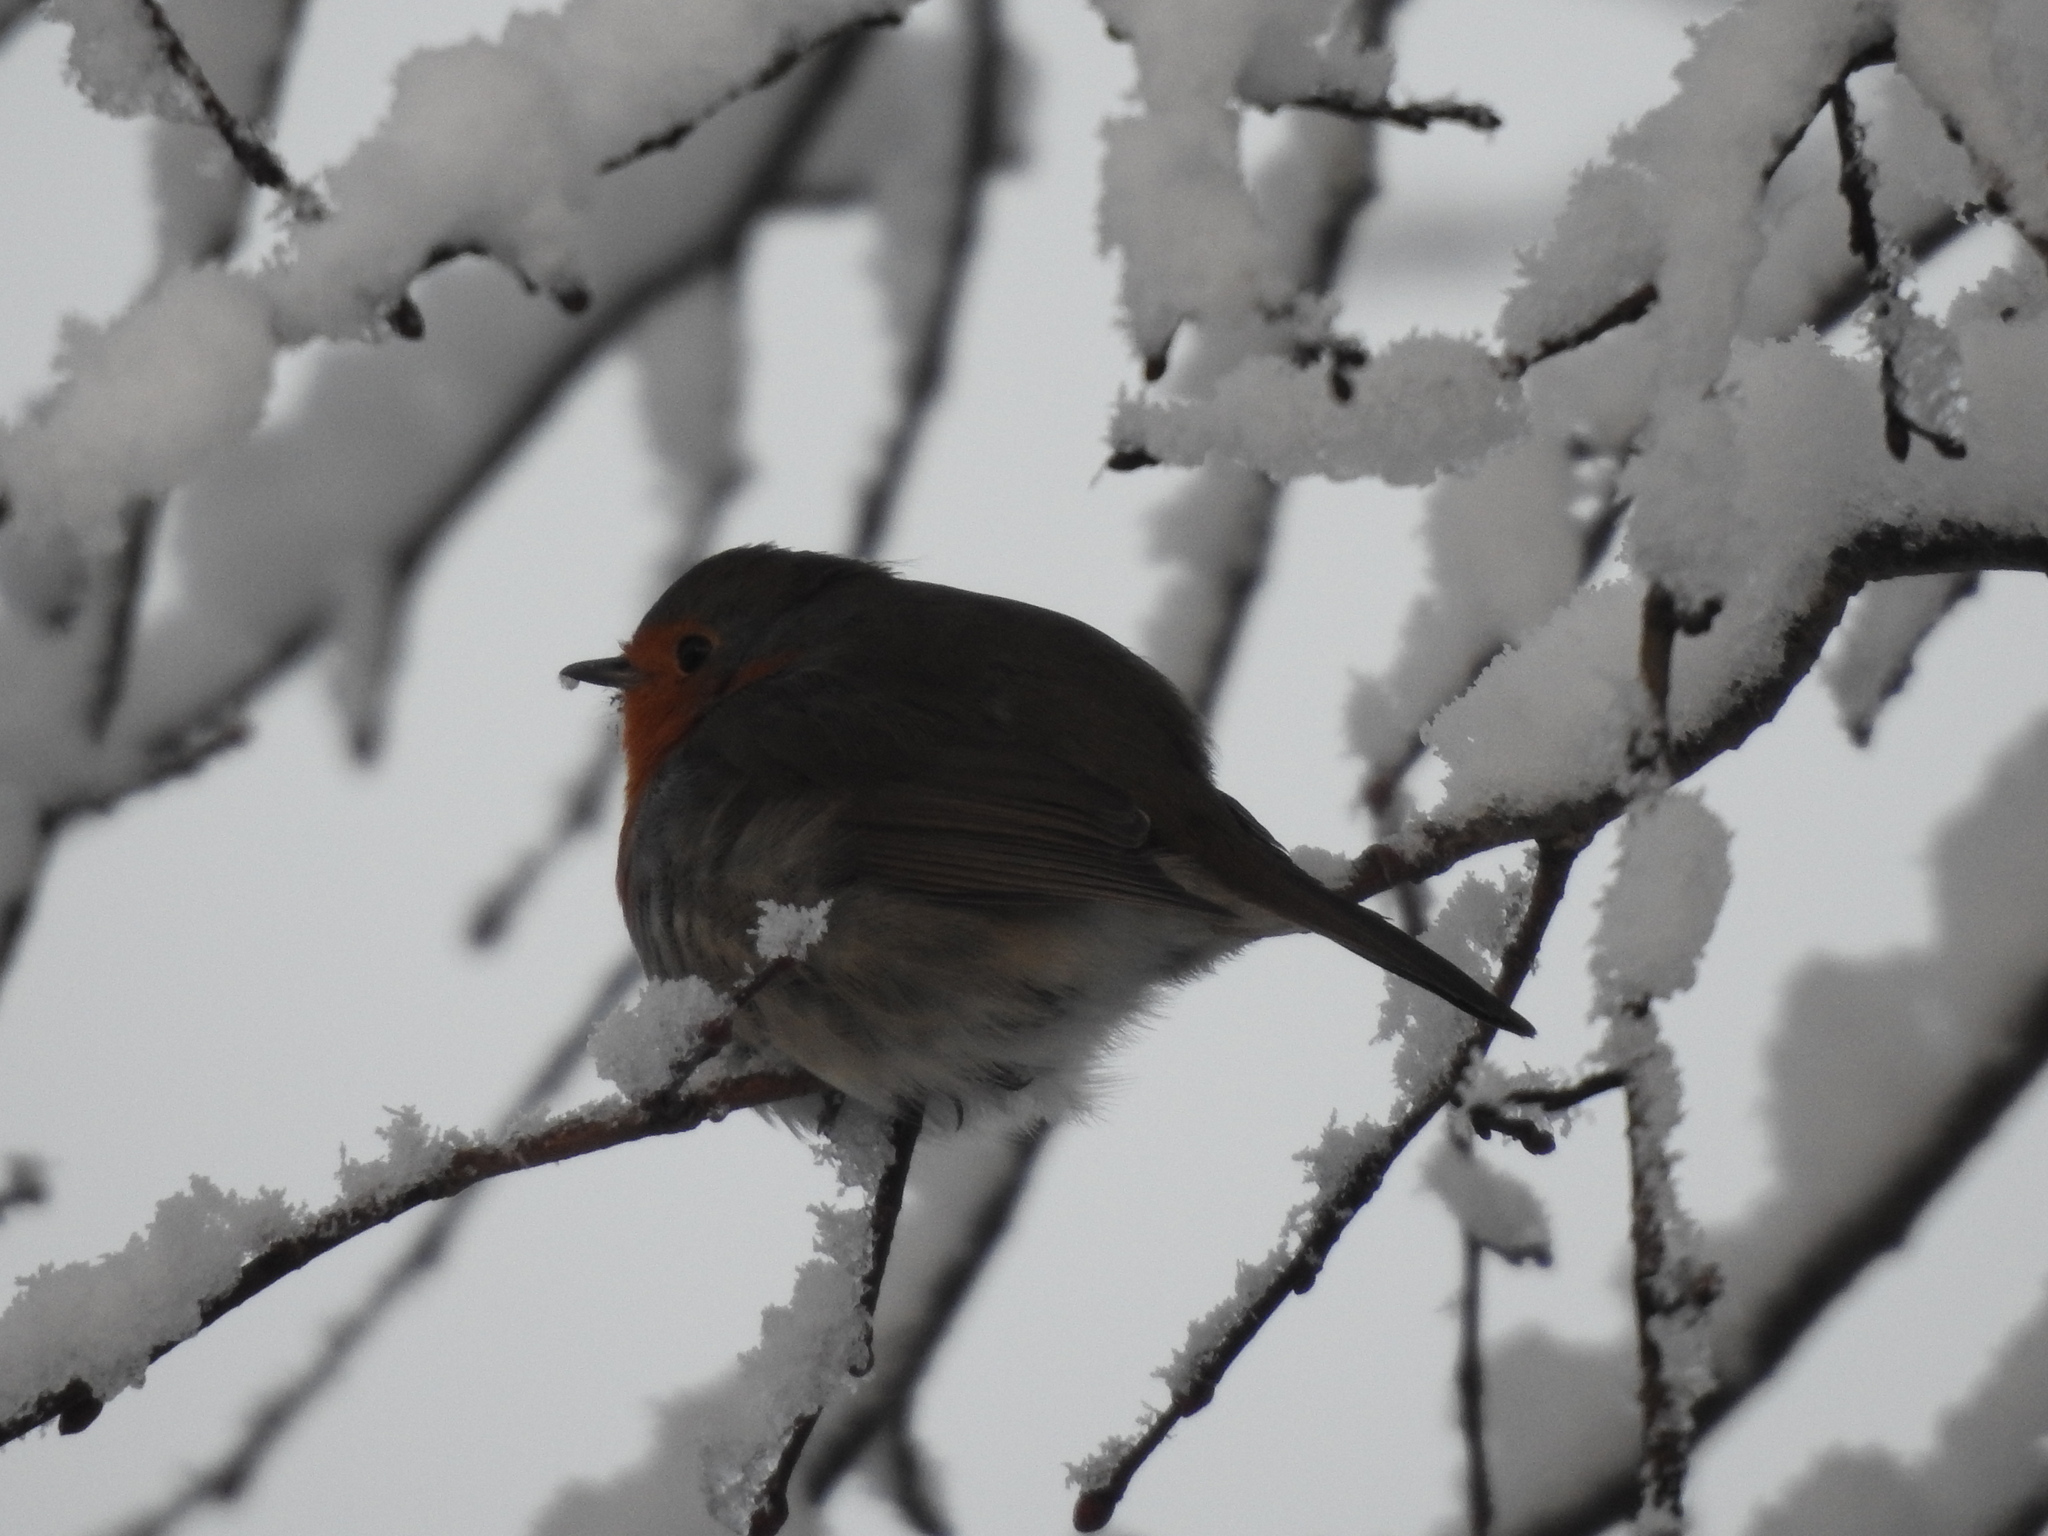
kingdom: Animalia
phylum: Chordata
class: Aves
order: Passeriformes
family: Muscicapidae
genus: Erithacus
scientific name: Erithacus rubecula
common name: European robin
